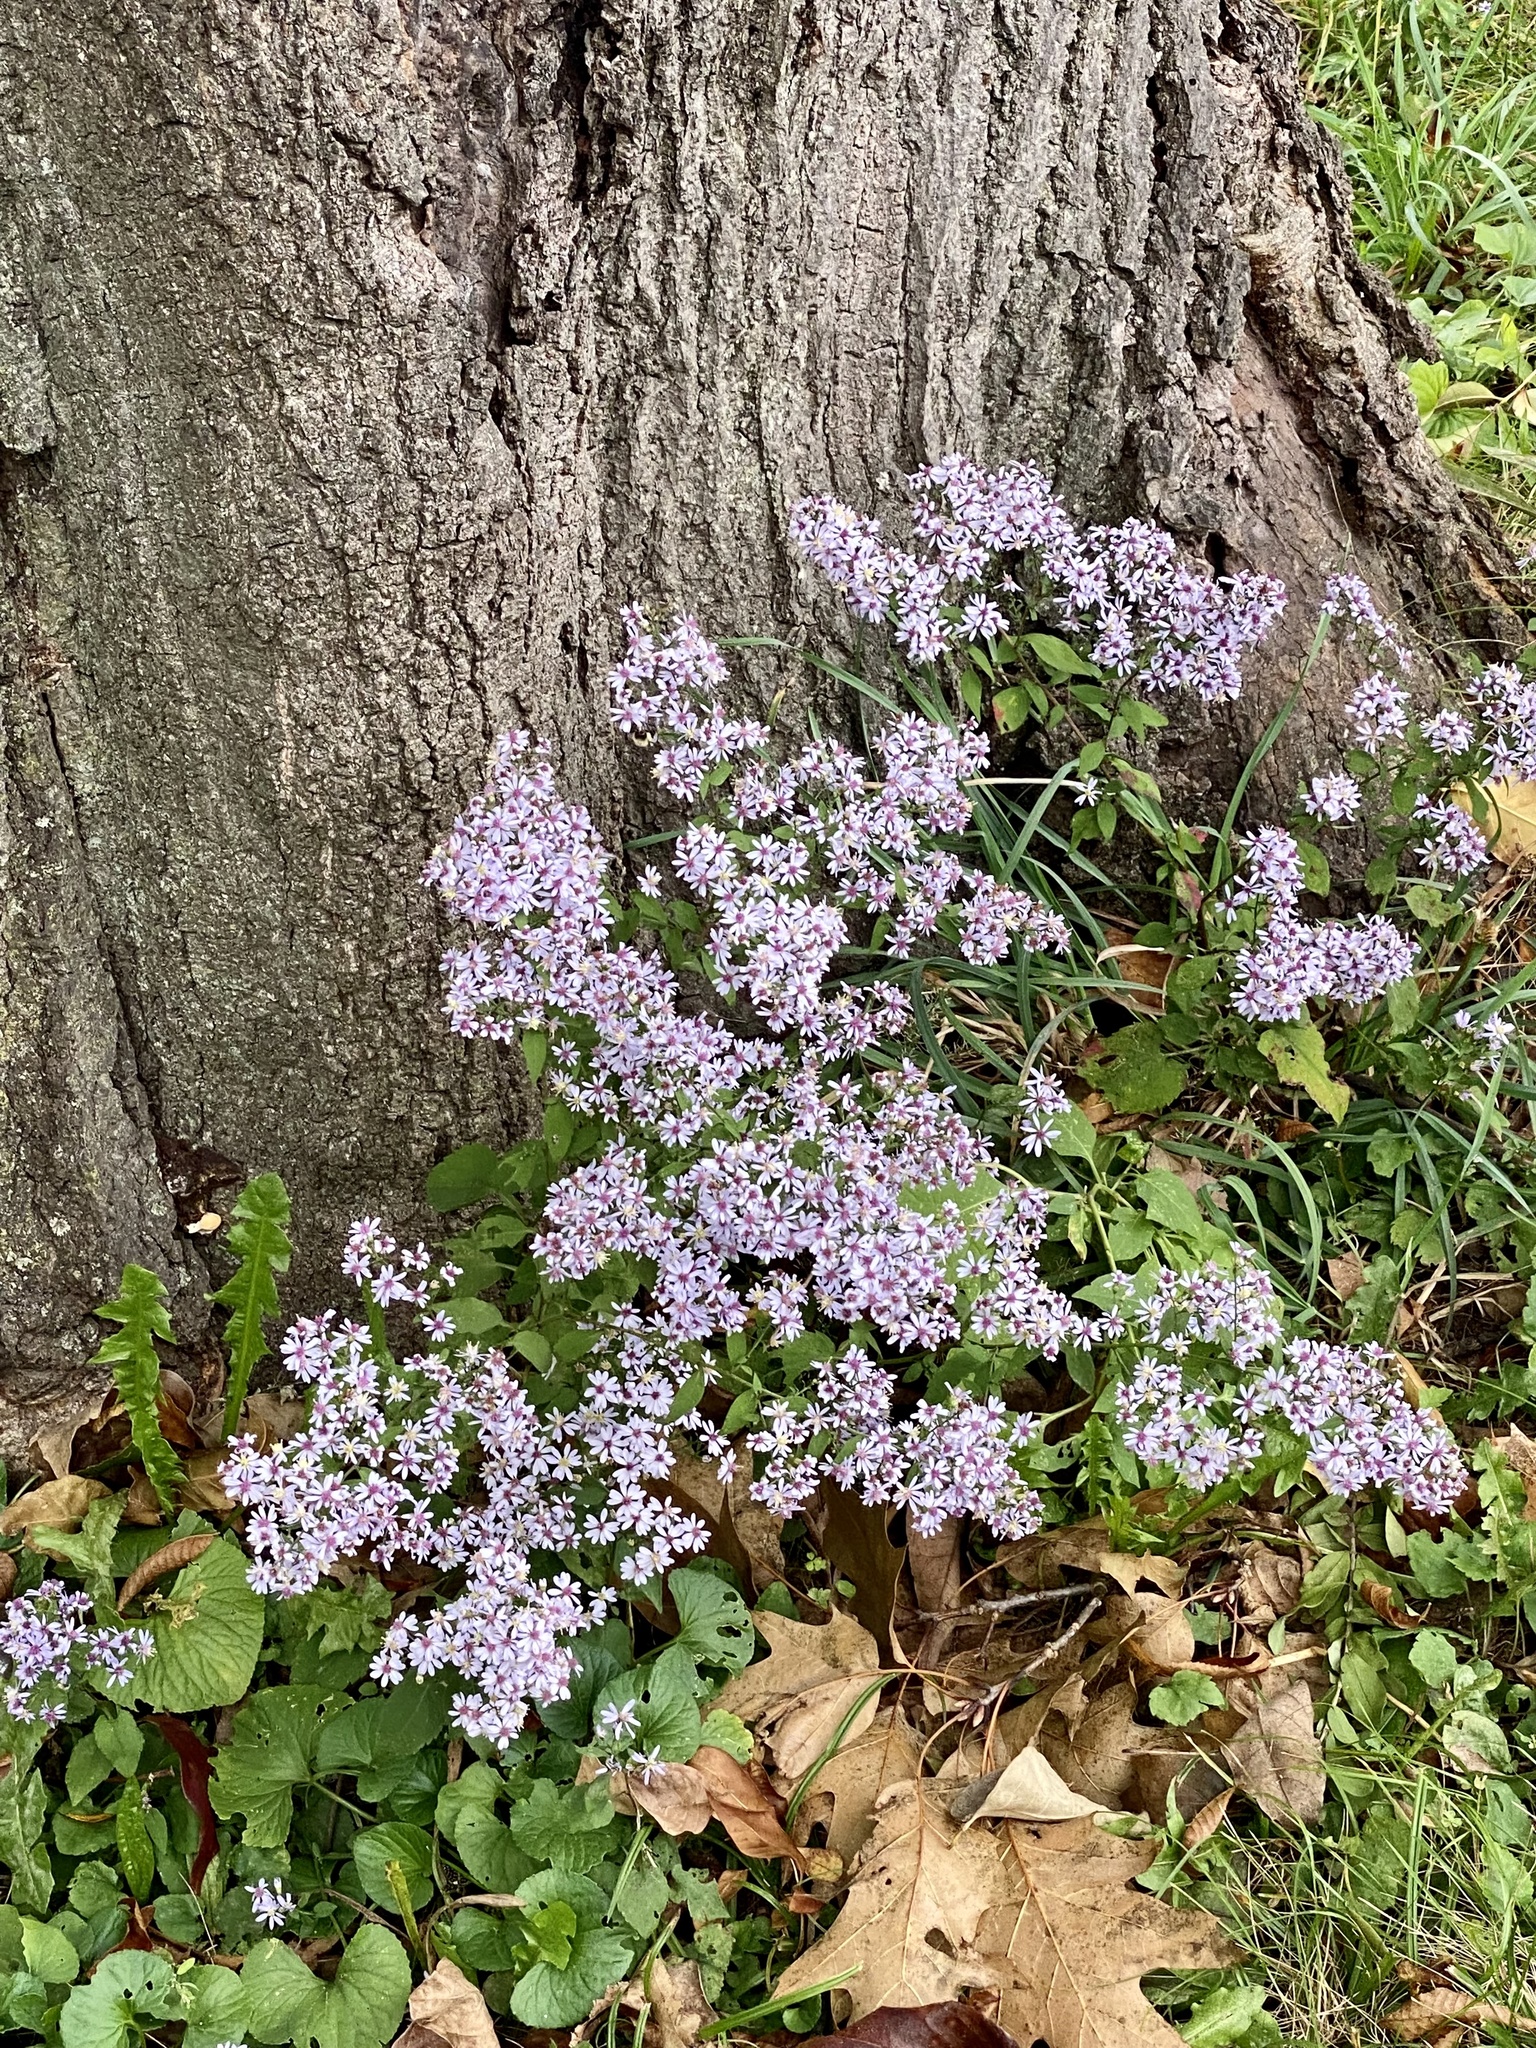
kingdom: Plantae
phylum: Tracheophyta
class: Magnoliopsida
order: Asterales
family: Asteraceae
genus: Symphyotrichum
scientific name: Symphyotrichum cordifolium
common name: Beeweed
